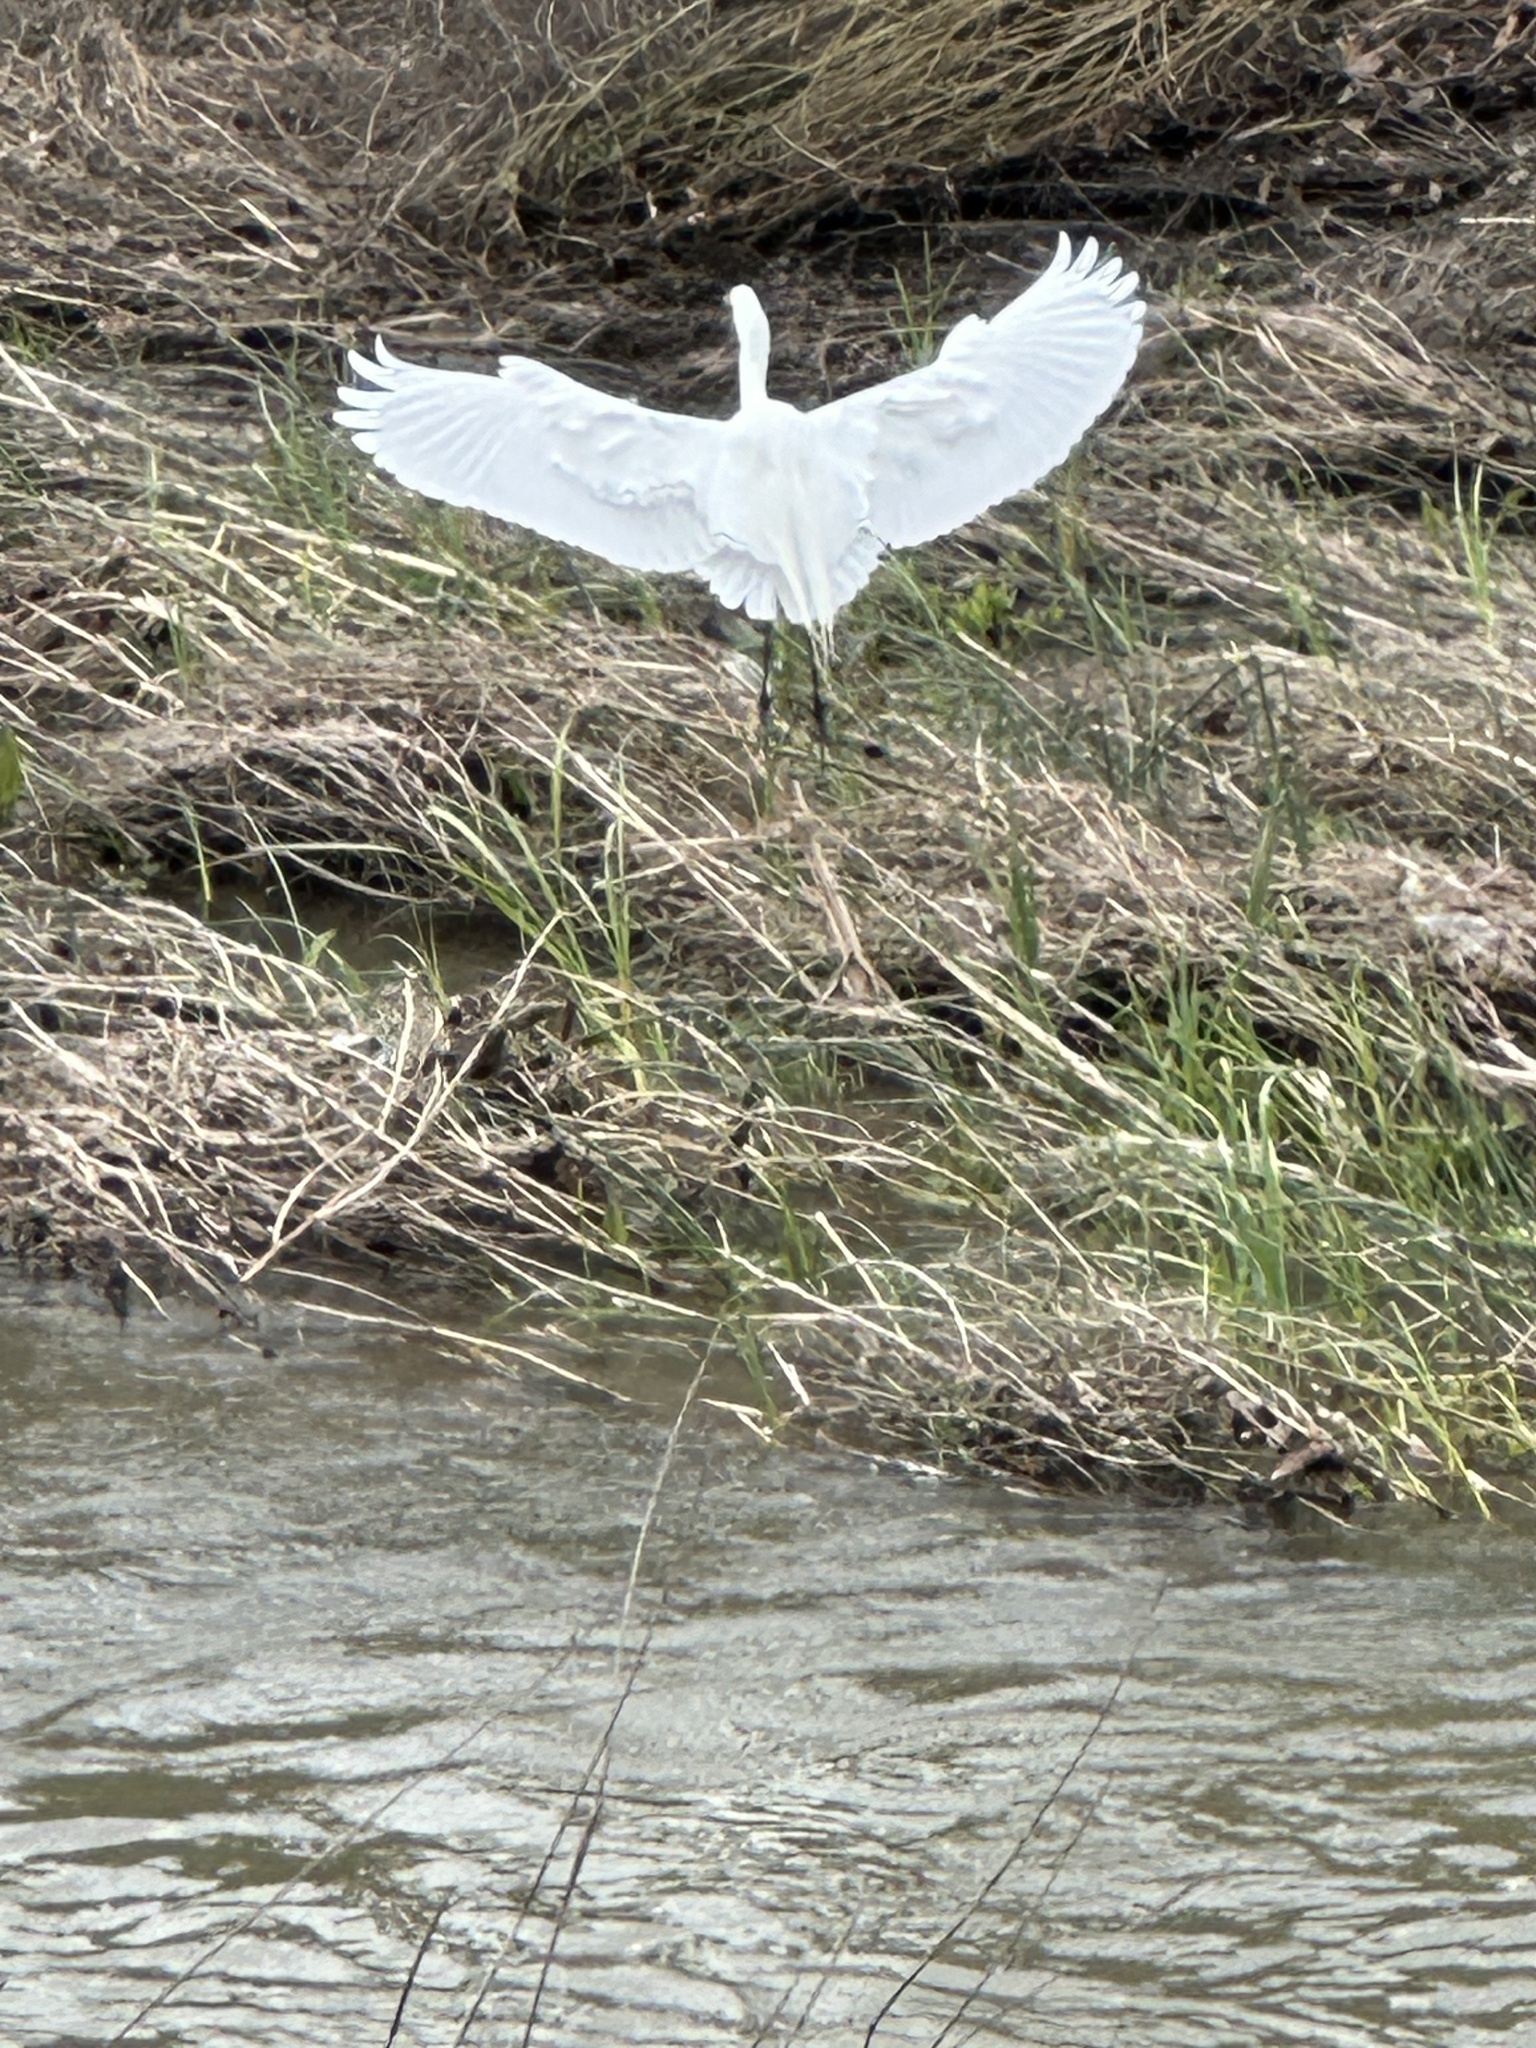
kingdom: Animalia
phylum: Chordata
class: Aves
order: Pelecaniformes
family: Ardeidae
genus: Ardea
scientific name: Ardea alba
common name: Great egret
